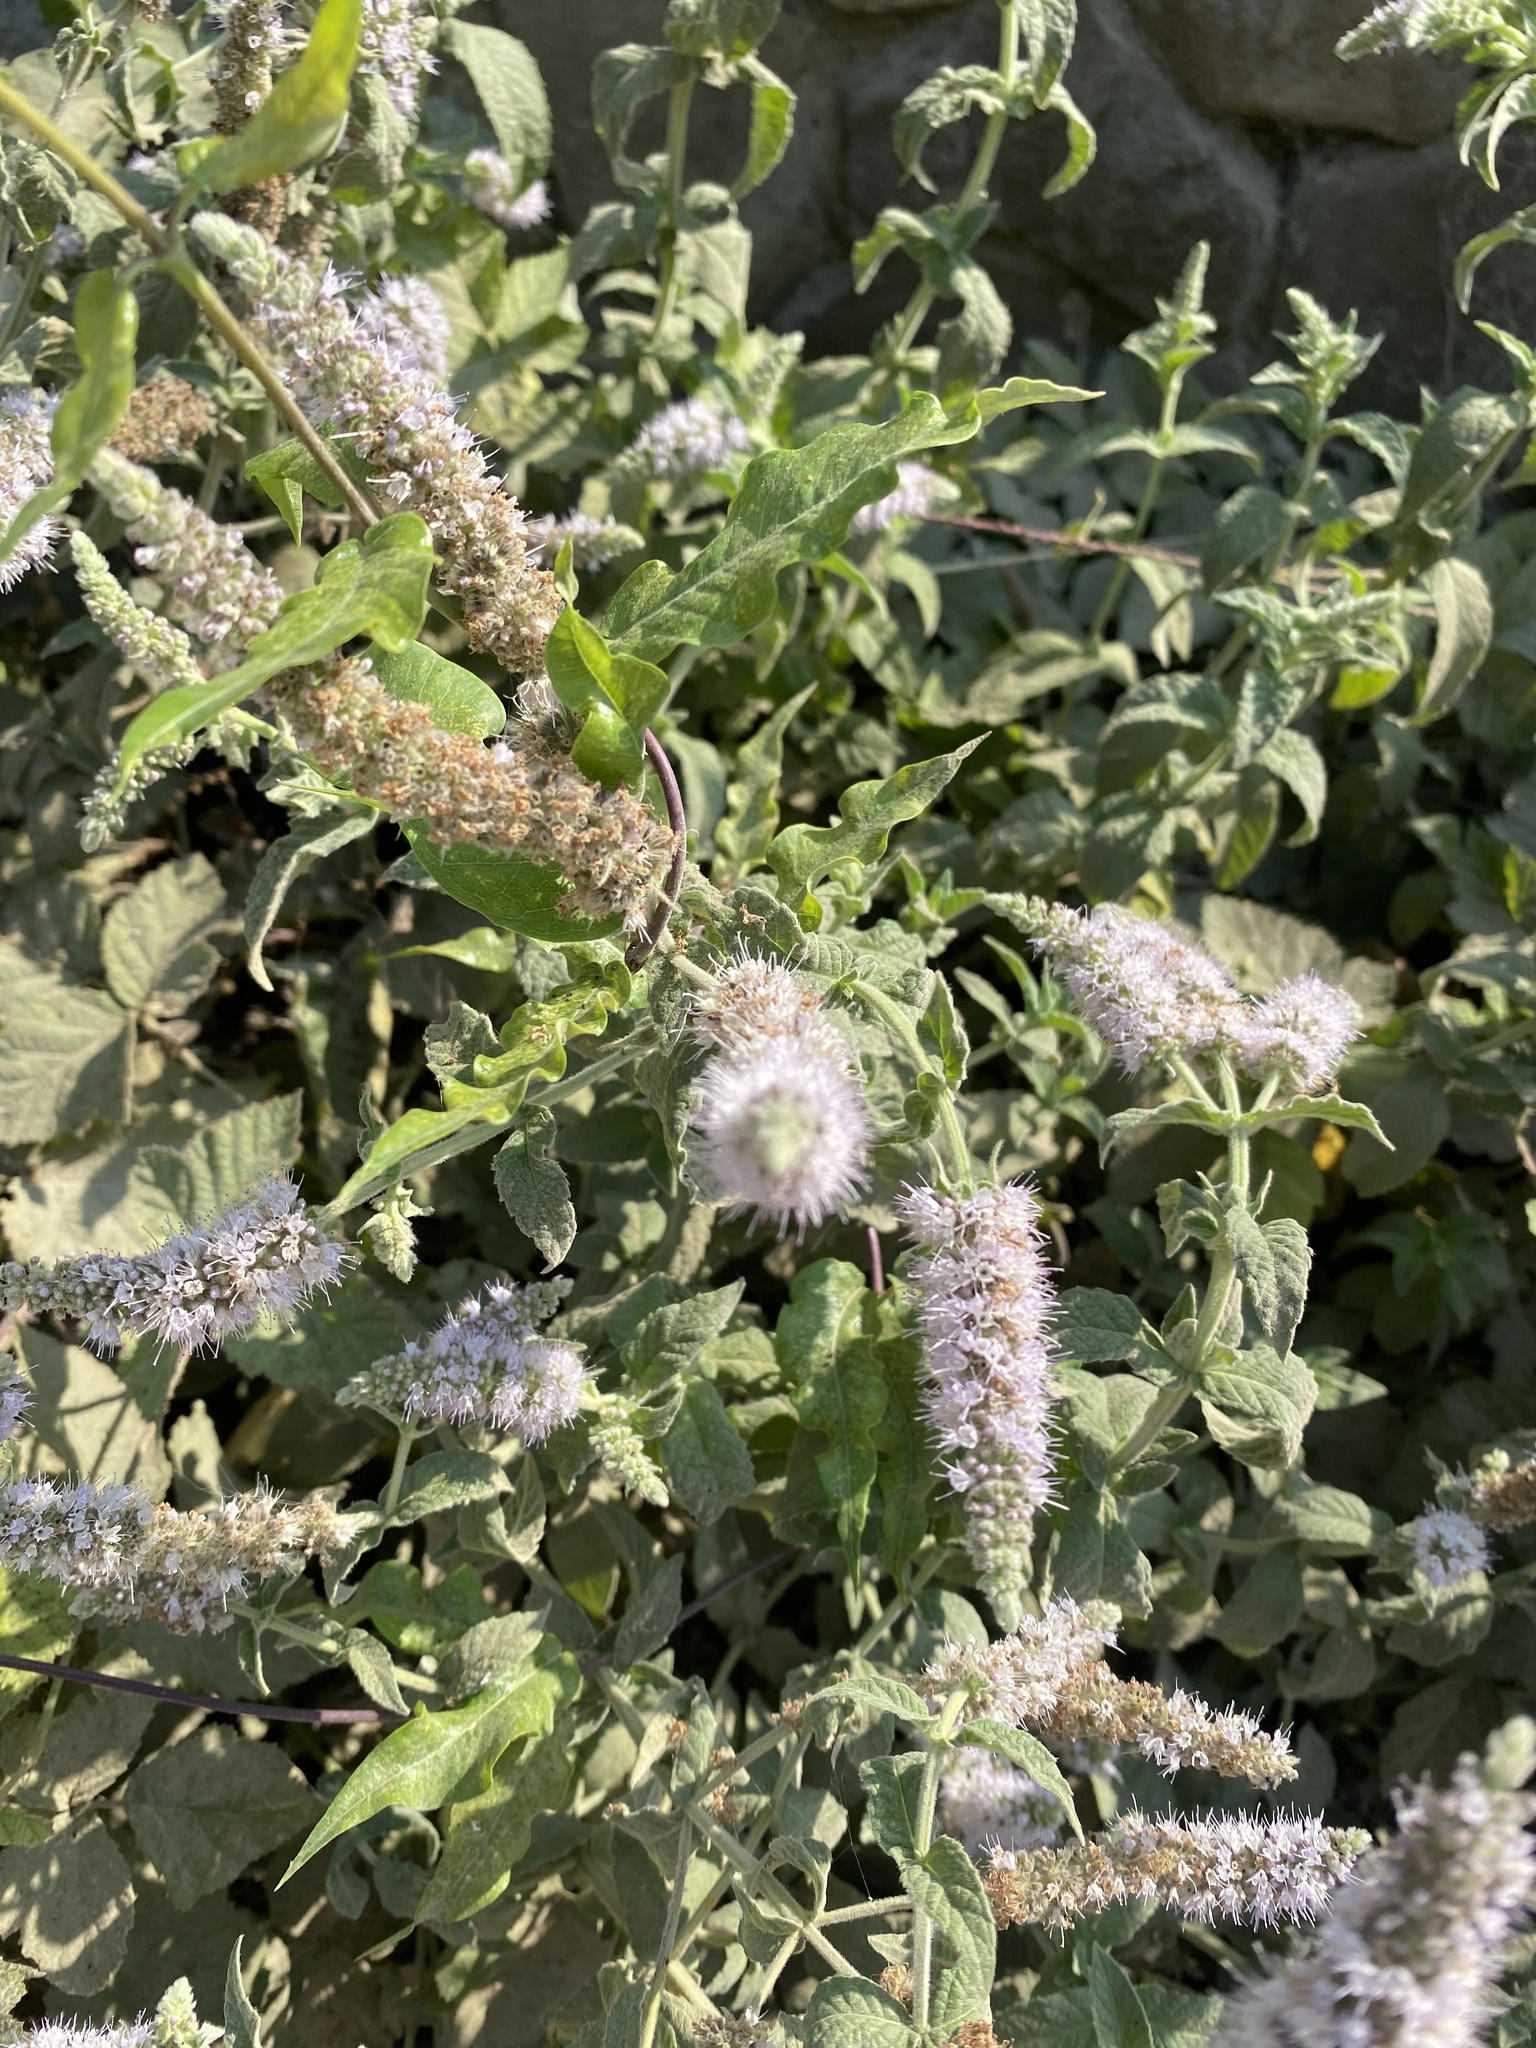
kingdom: Plantae
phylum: Tracheophyta
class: Magnoliopsida
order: Lamiales
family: Lamiaceae
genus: Mentha
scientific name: Mentha longifolia
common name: Horse mint
